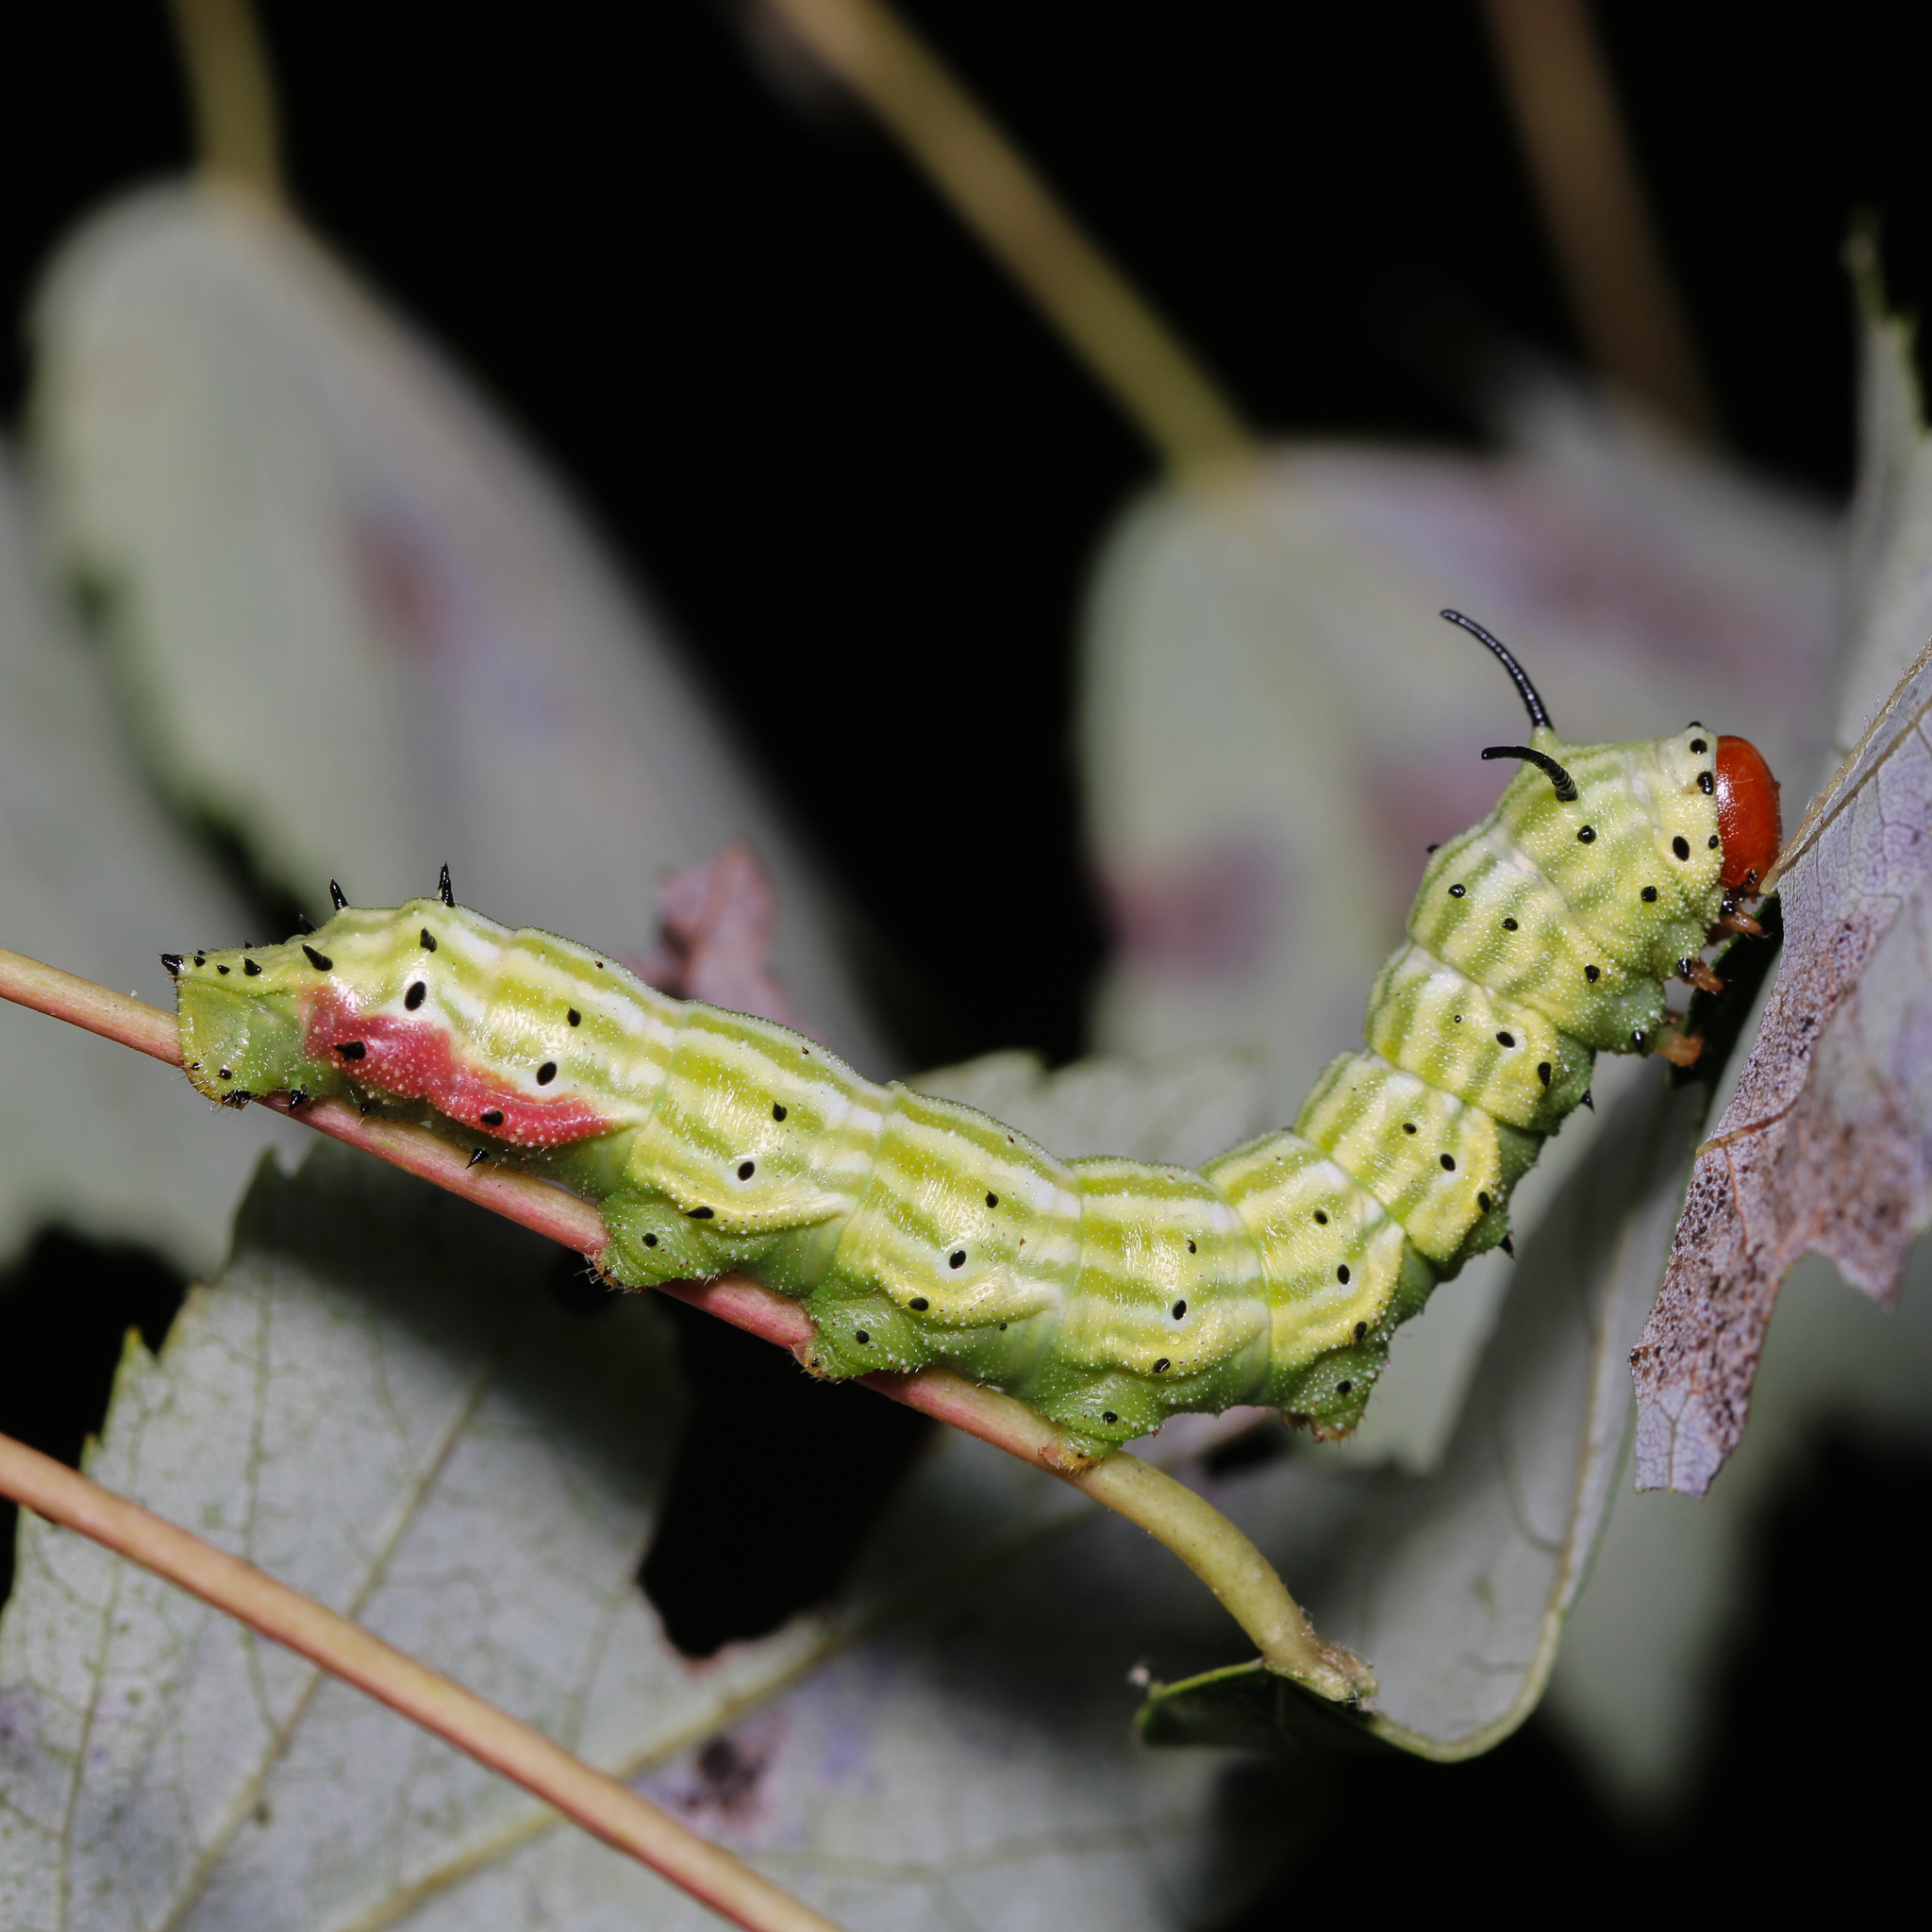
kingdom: Animalia
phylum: Arthropoda
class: Insecta
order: Lepidoptera
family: Saturniidae
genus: Dryocampa
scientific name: Dryocampa rubicunda
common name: Rosy maple moth
